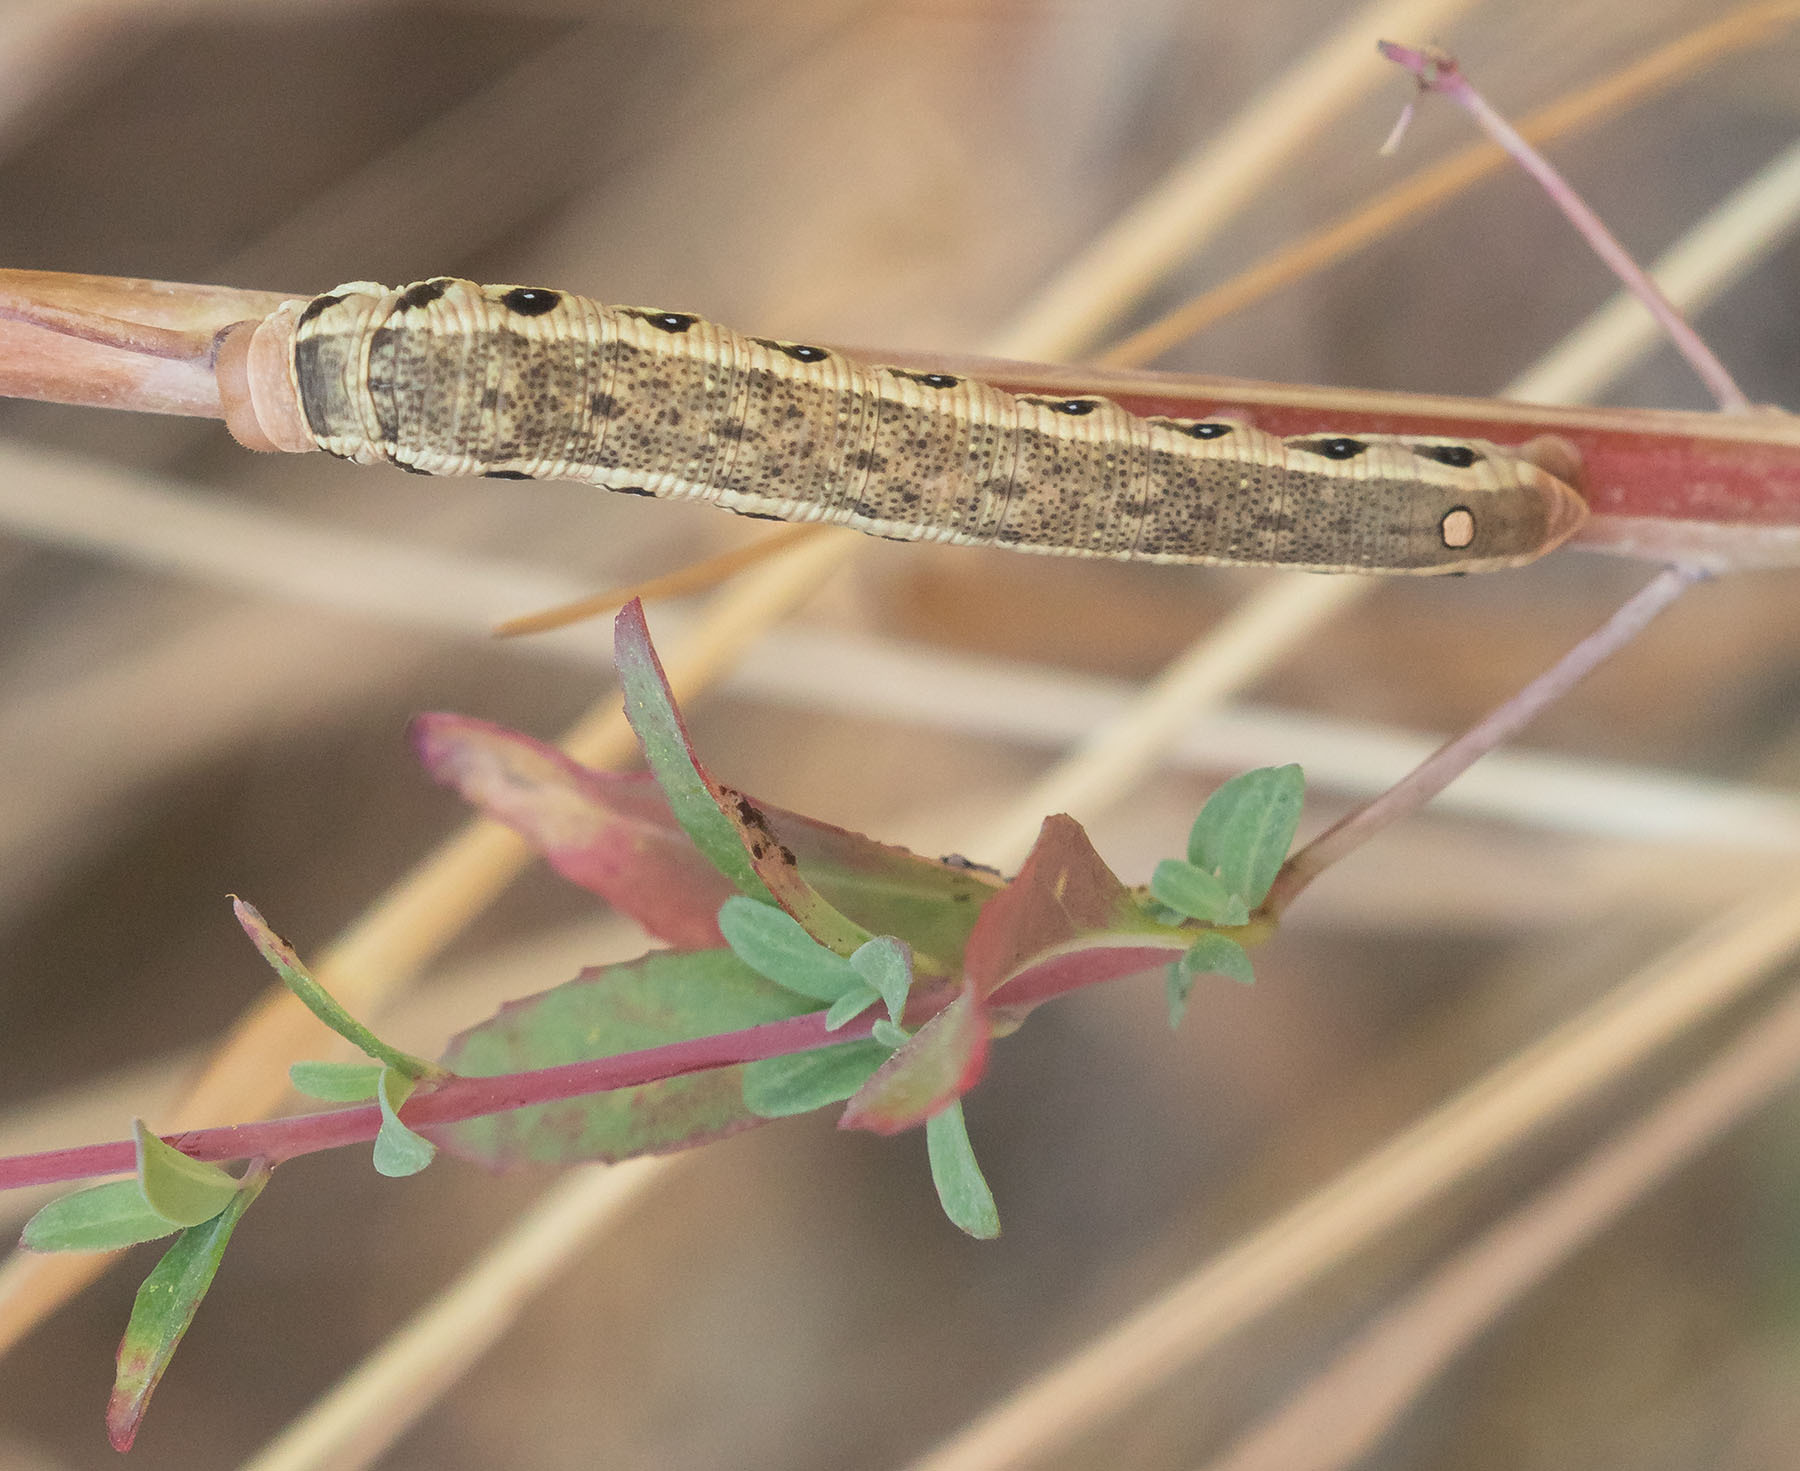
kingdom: Animalia
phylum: Arthropoda
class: Insecta
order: Lepidoptera
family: Sphingidae
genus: Proserpinus
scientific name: Proserpinus clarkiae
